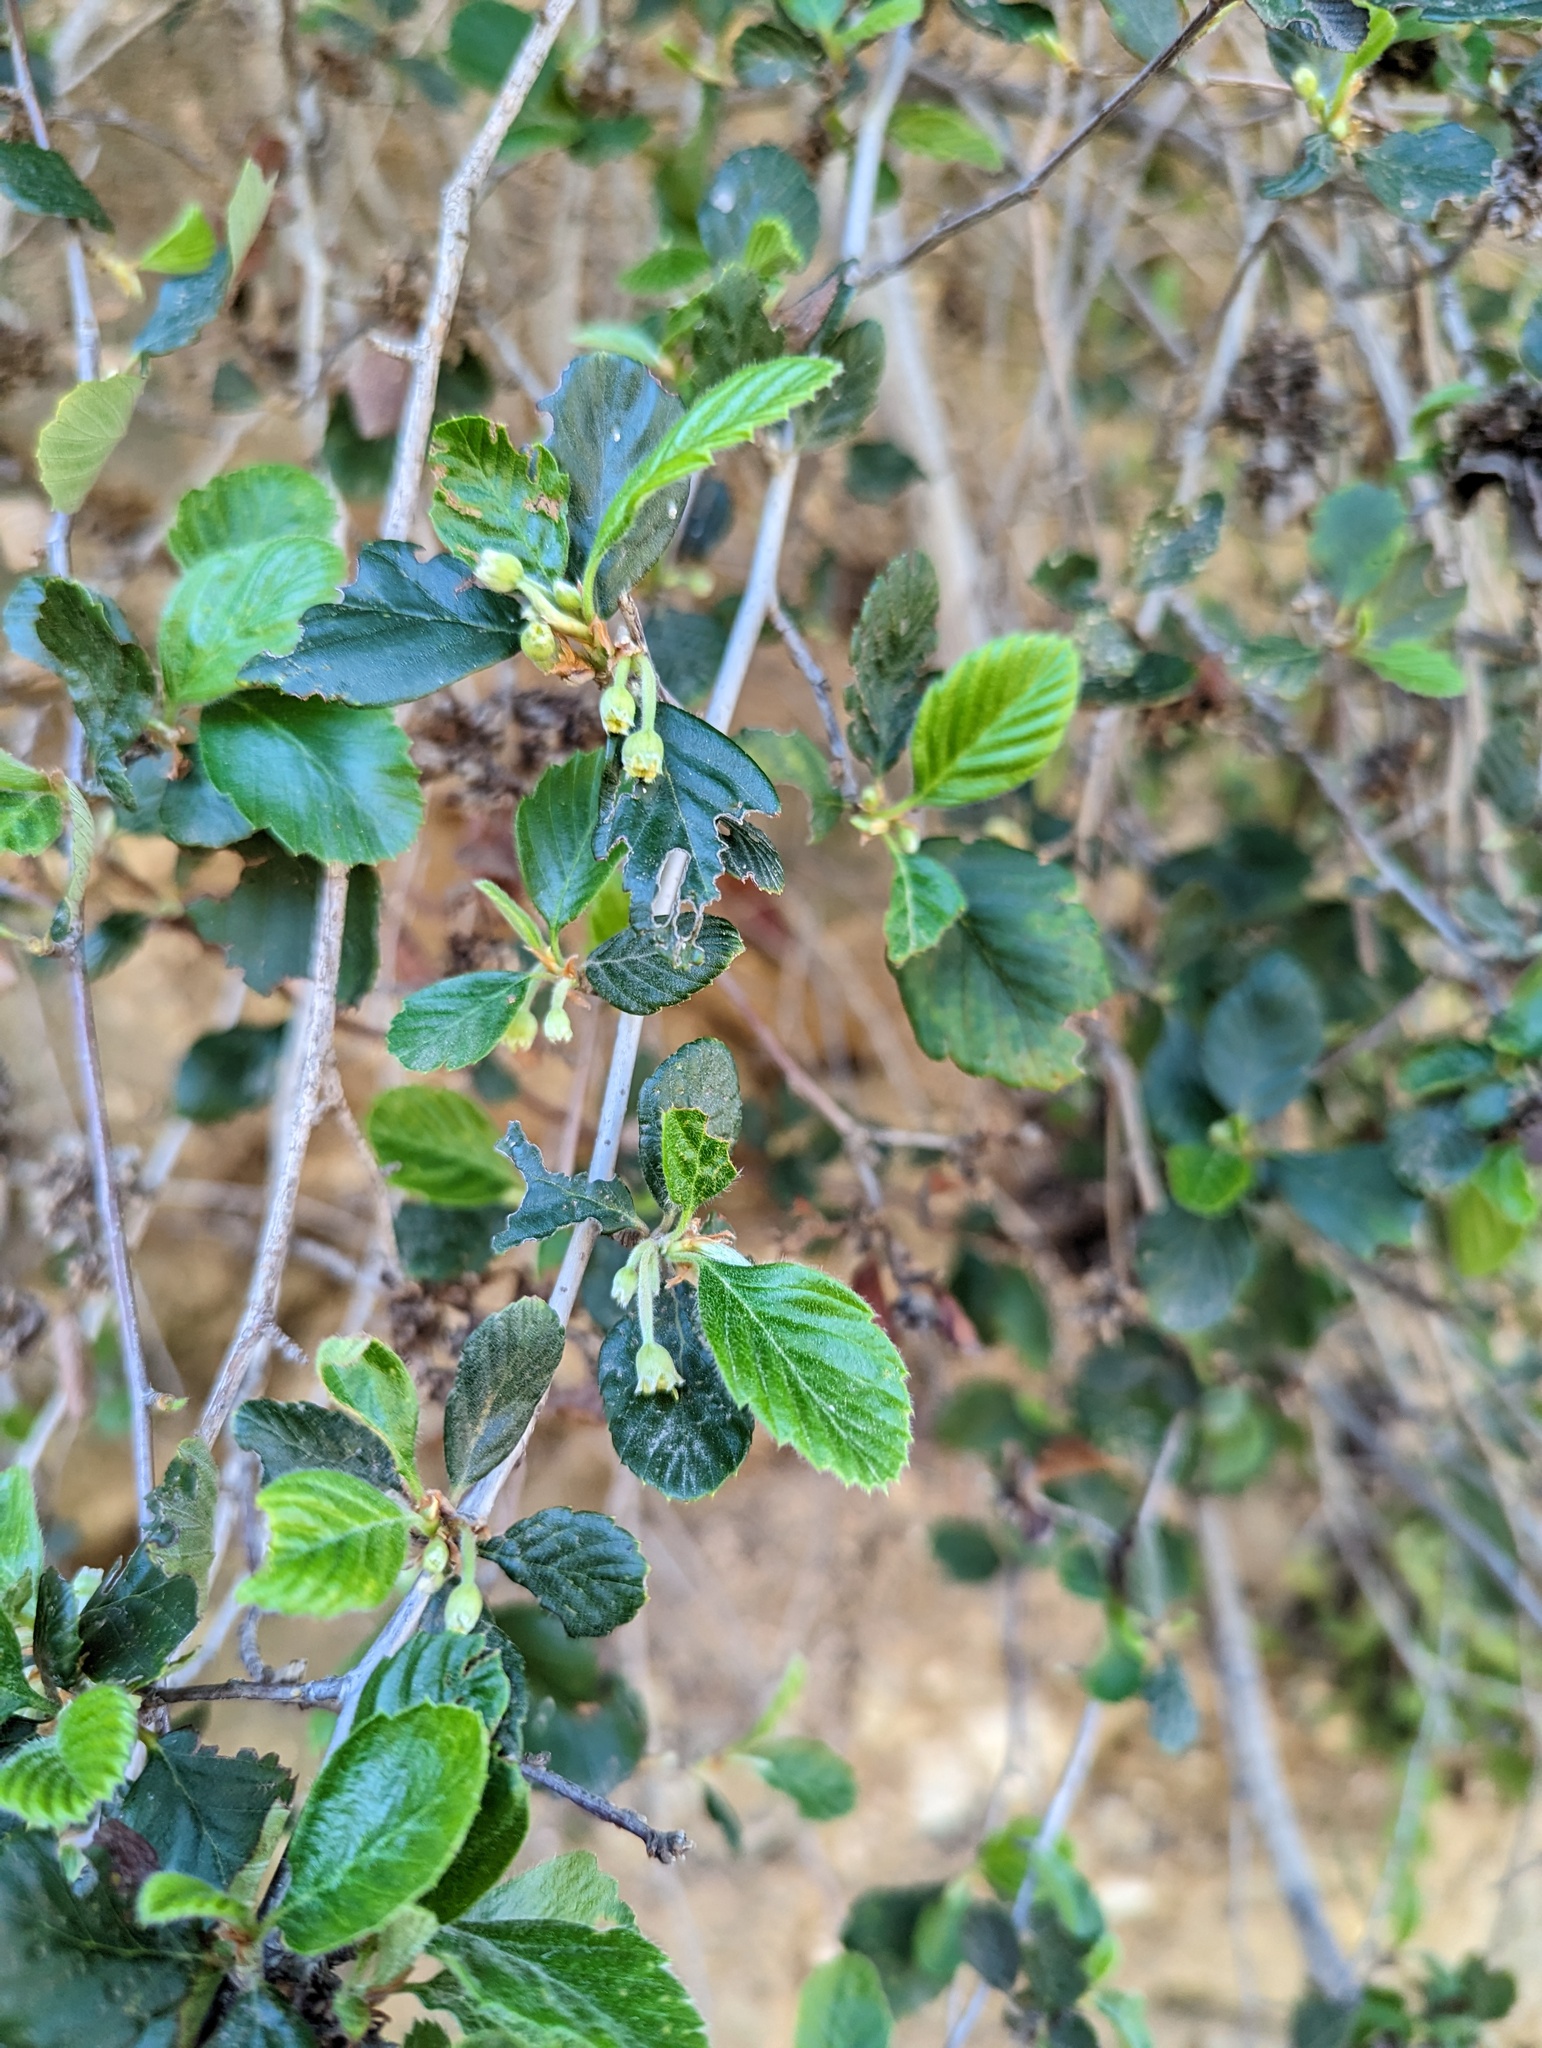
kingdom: Plantae
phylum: Tracheophyta
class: Magnoliopsida
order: Rosales
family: Rosaceae
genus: Cercocarpus
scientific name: Cercocarpus betuloides
